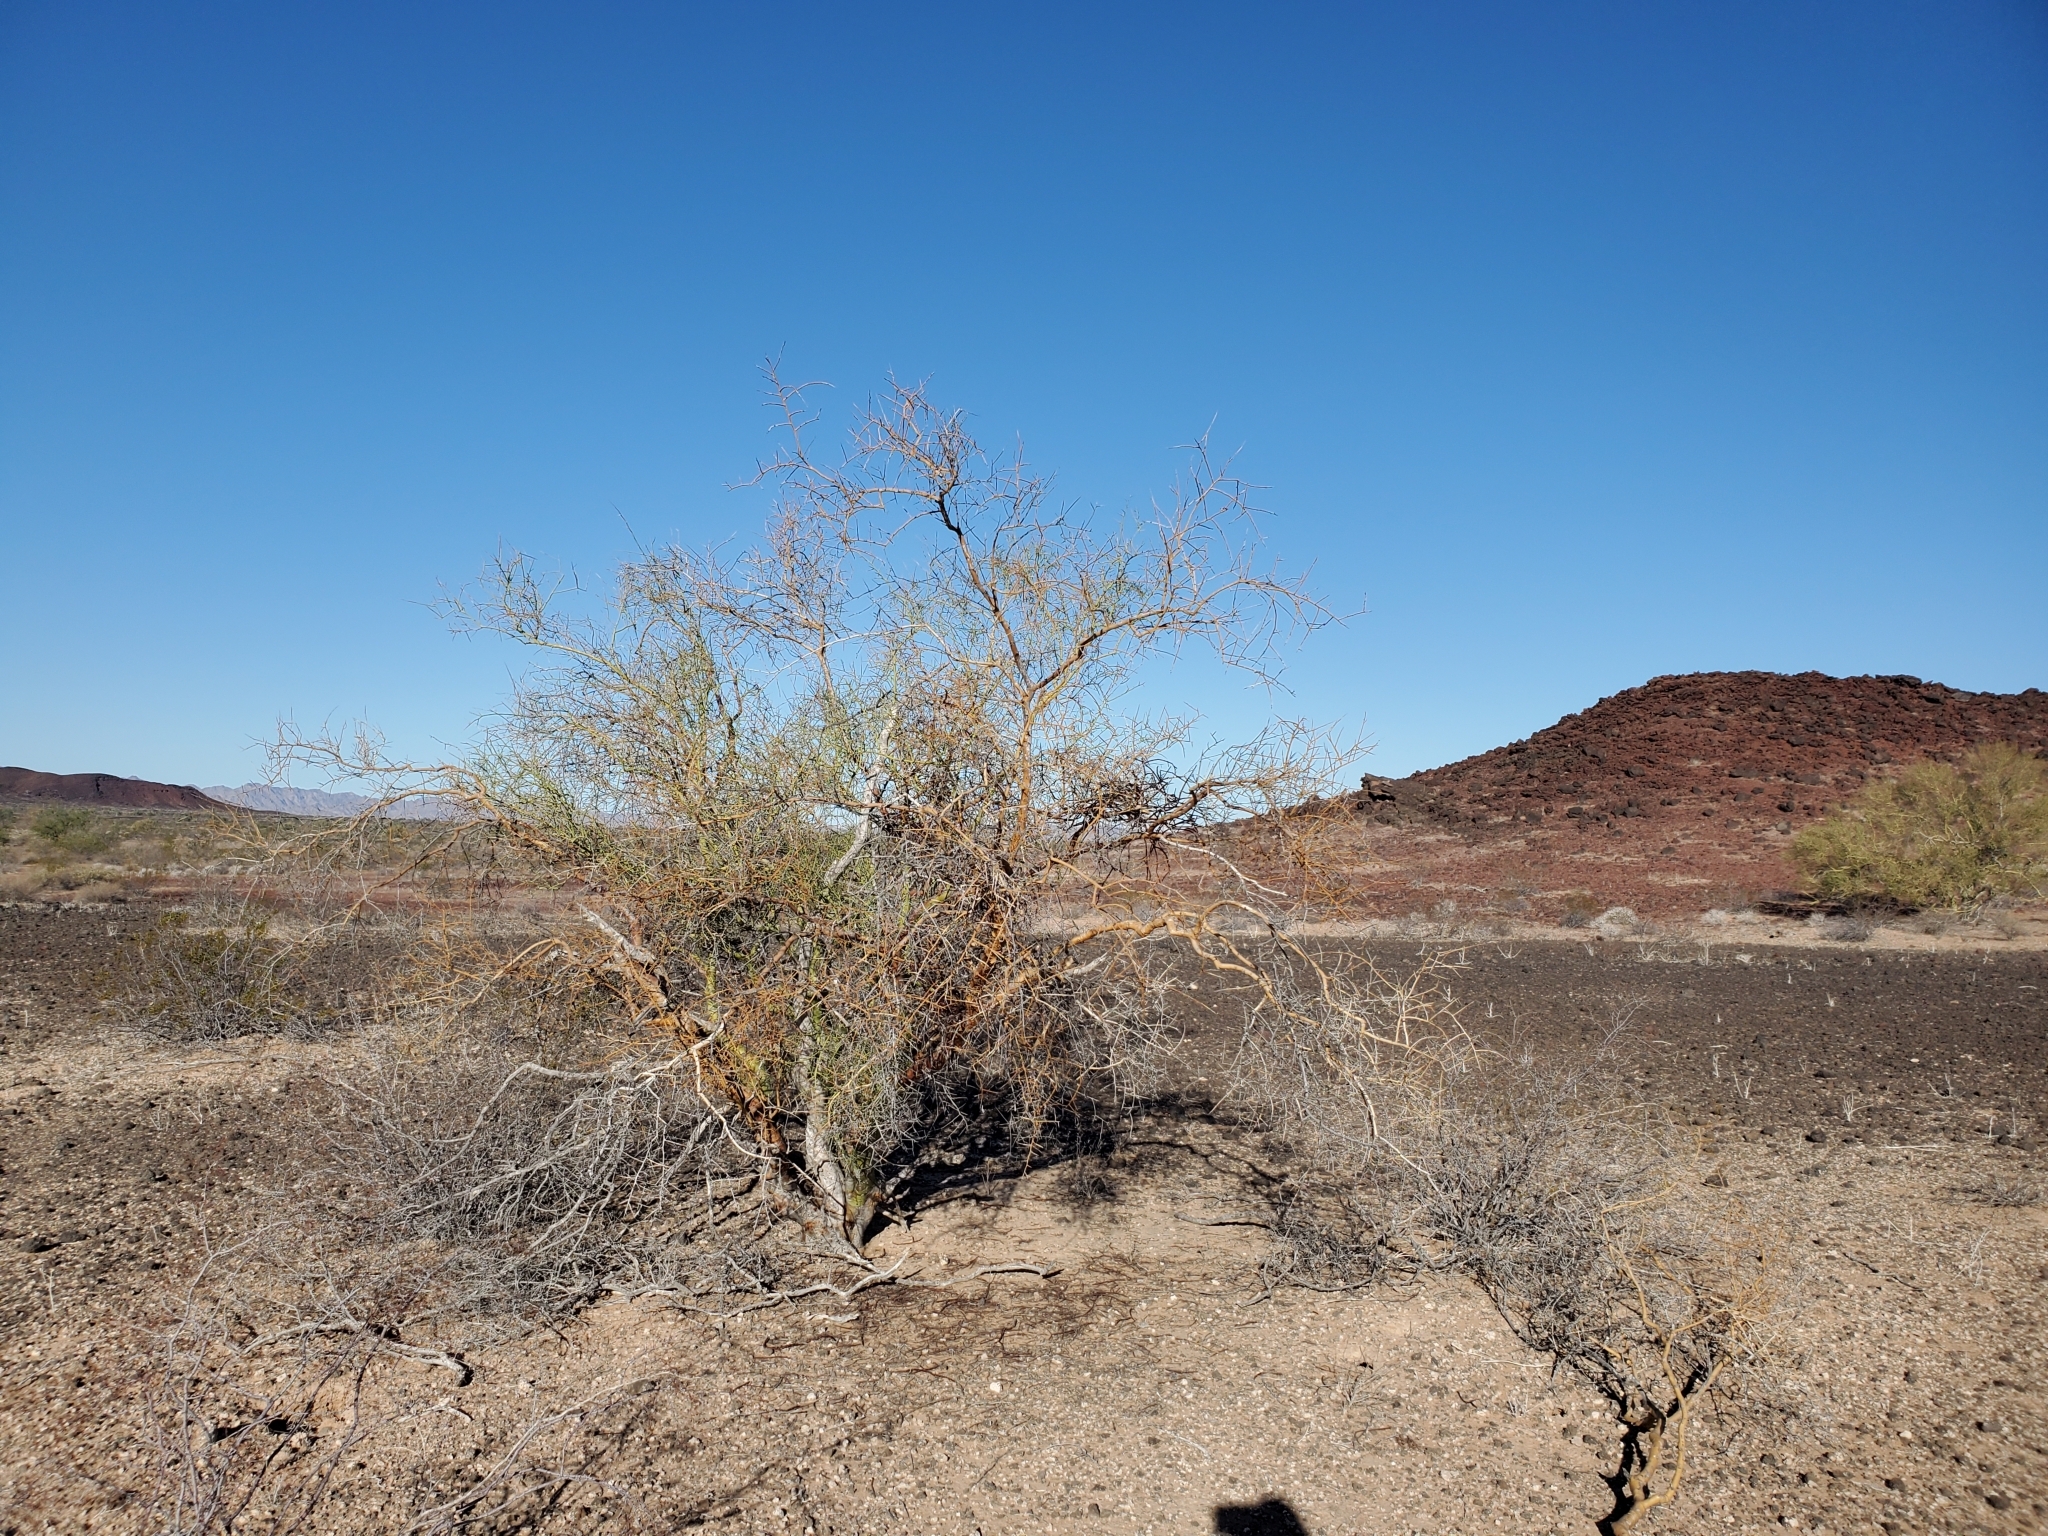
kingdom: Plantae
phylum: Tracheophyta
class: Magnoliopsida
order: Fabales
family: Fabaceae
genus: Parkinsonia
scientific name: Parkinsonia microphylla
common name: Yellow paloverde
